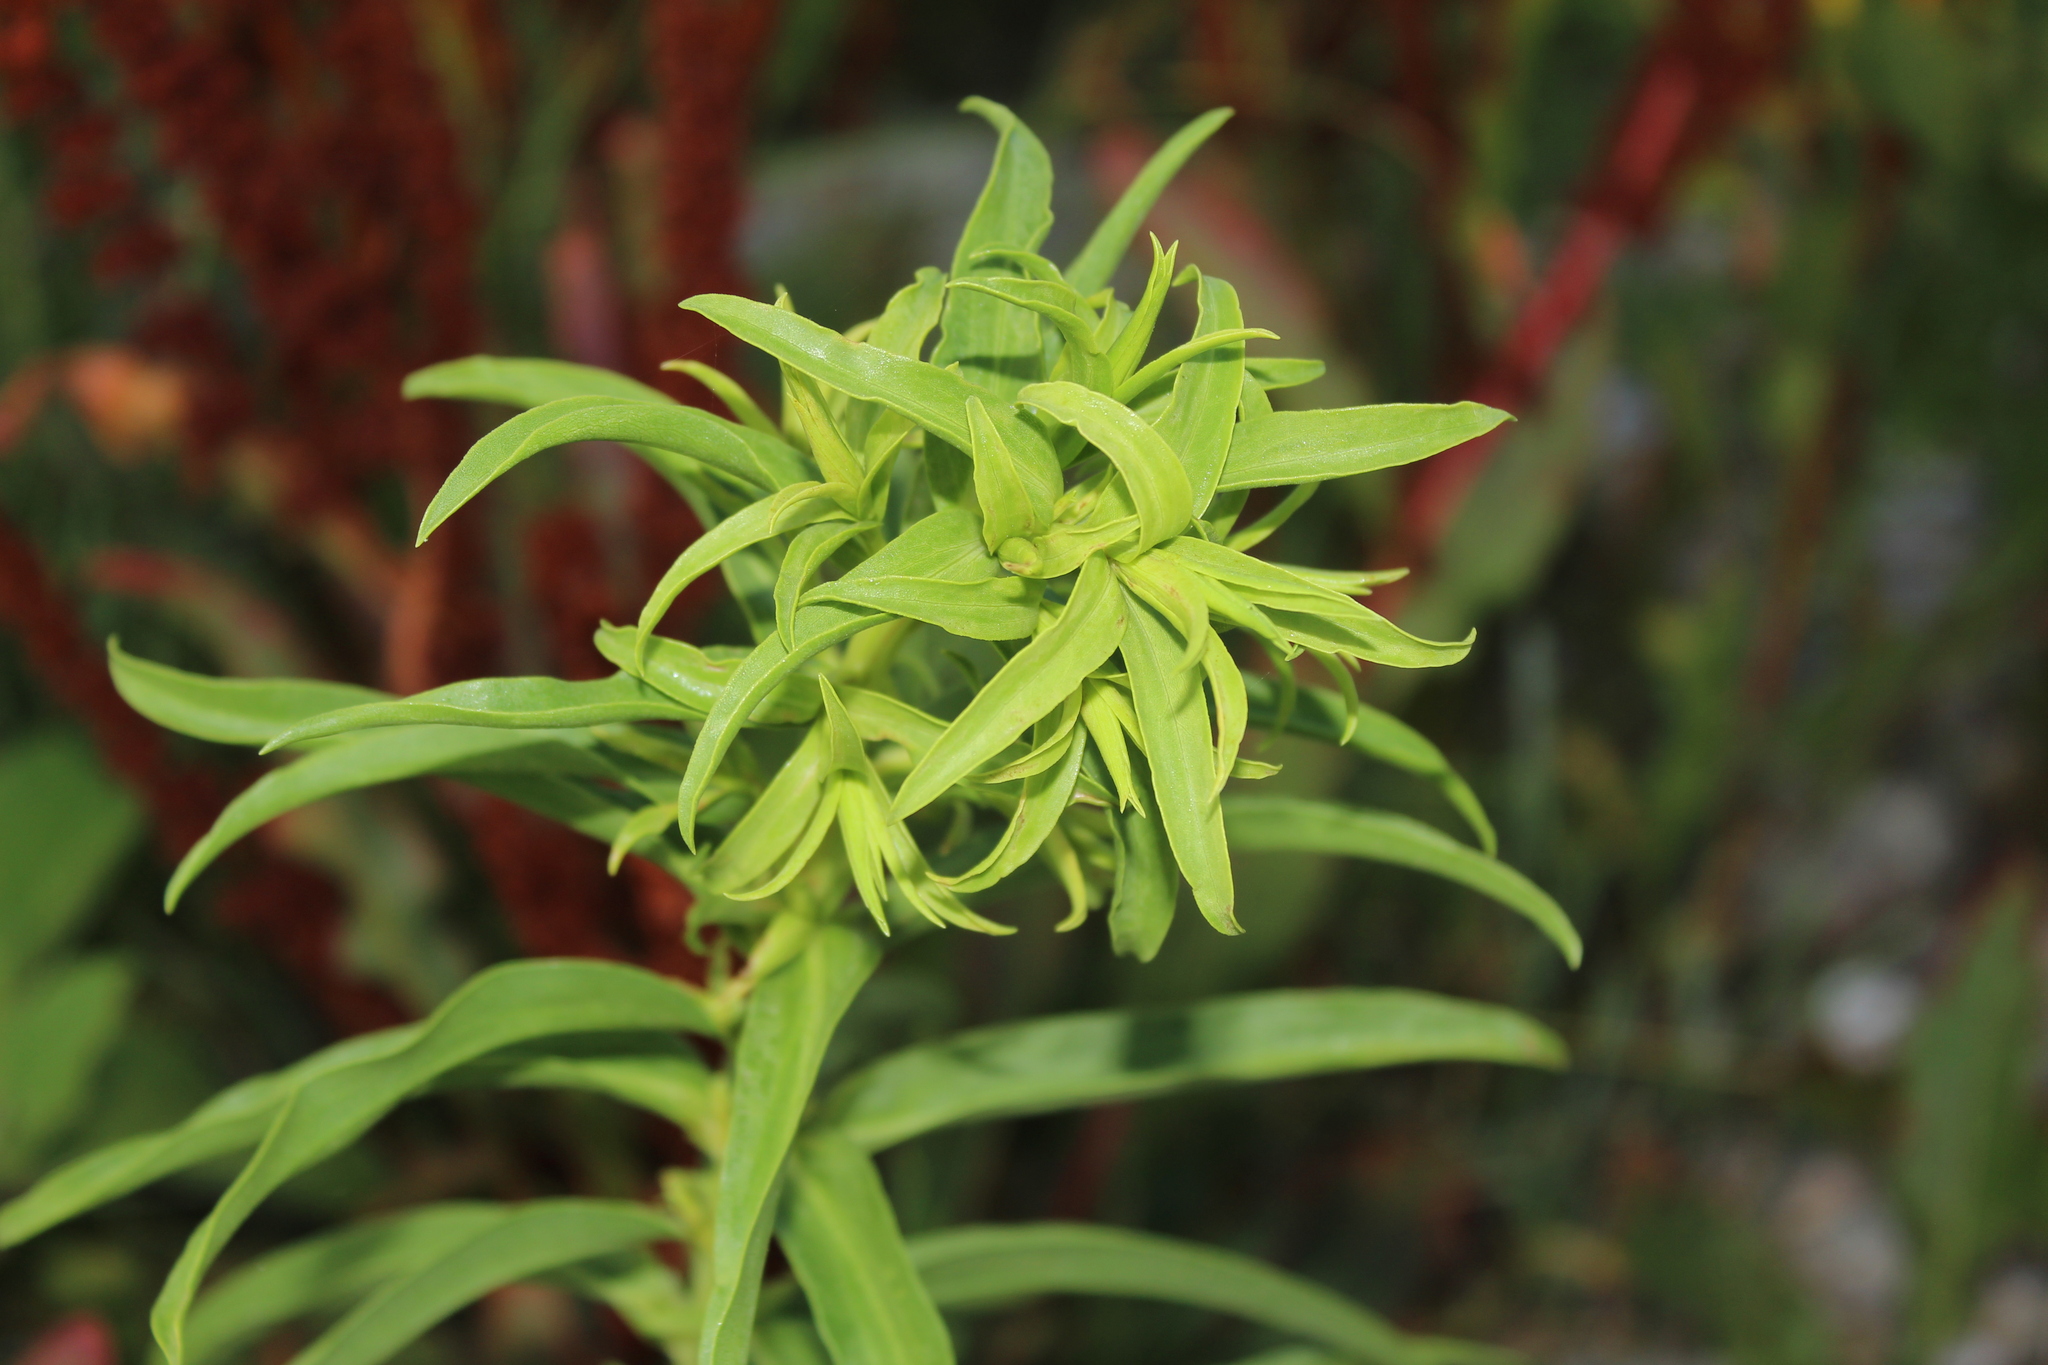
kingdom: Plantae
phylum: Tracheophyta
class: Magnoliopsida
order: Asterales
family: Asteraceae
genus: Solidago
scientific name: Solidago sempervirens
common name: Salt-marsh goldenrod
